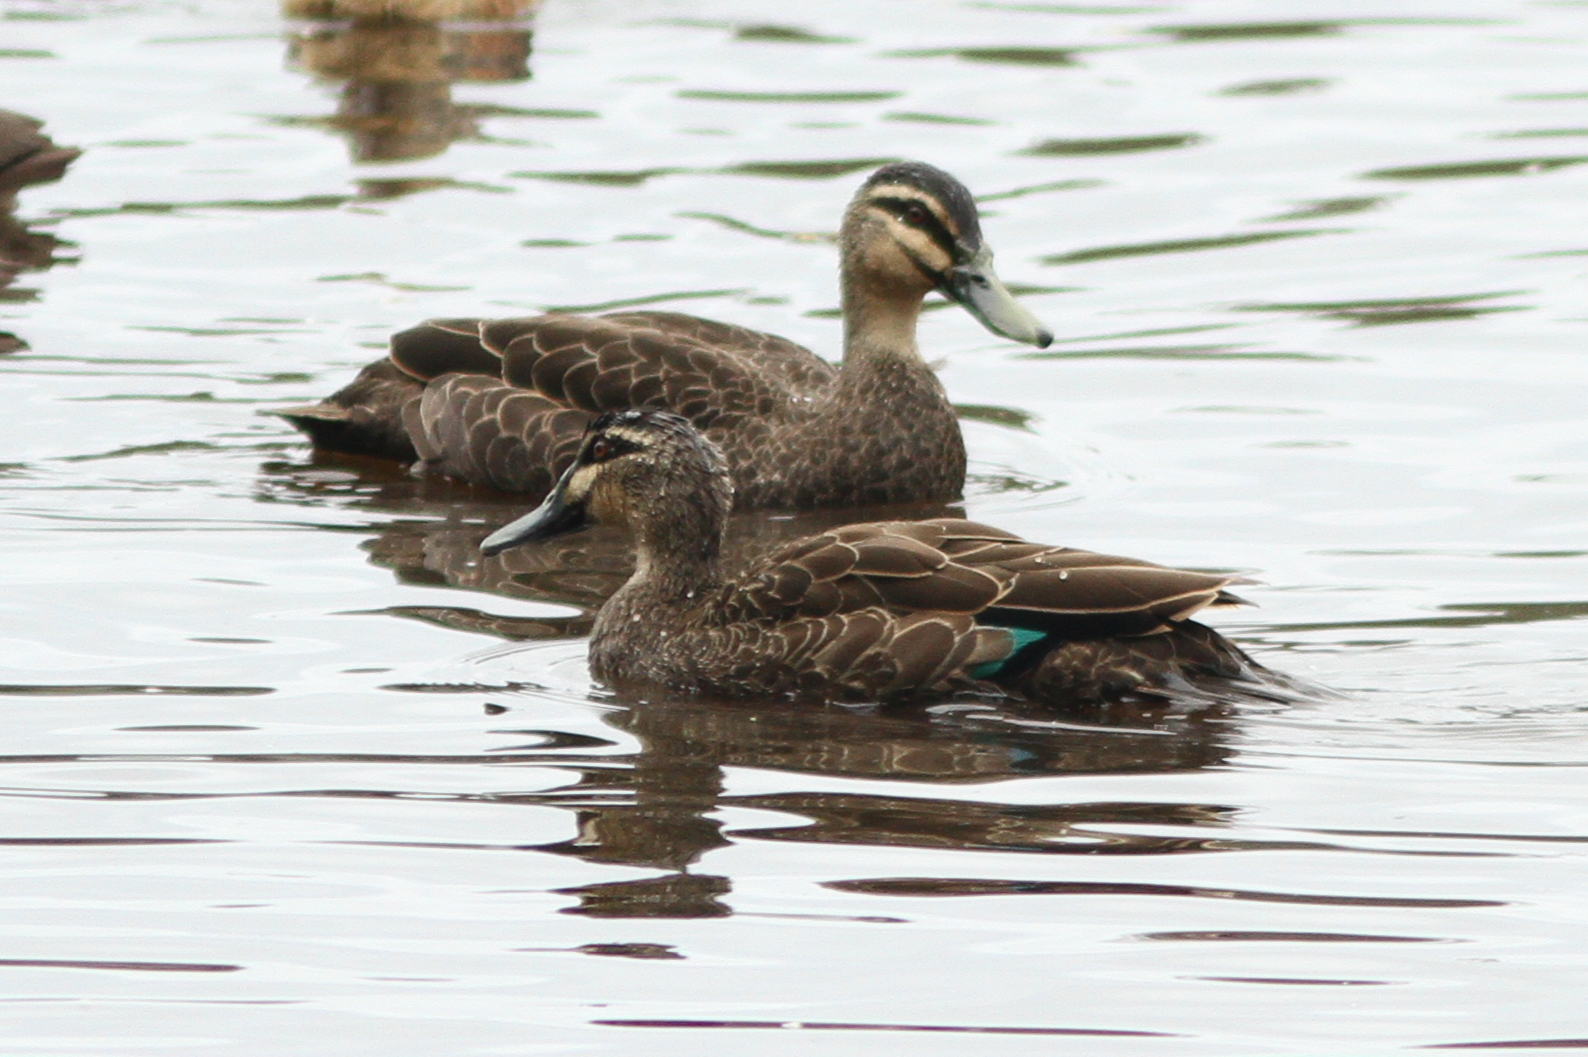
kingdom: Animalia
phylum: Chordata
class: Aves
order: Anseriformes
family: Anatidae
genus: Anas
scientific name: Anas superciliosa
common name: Pacific black duck
